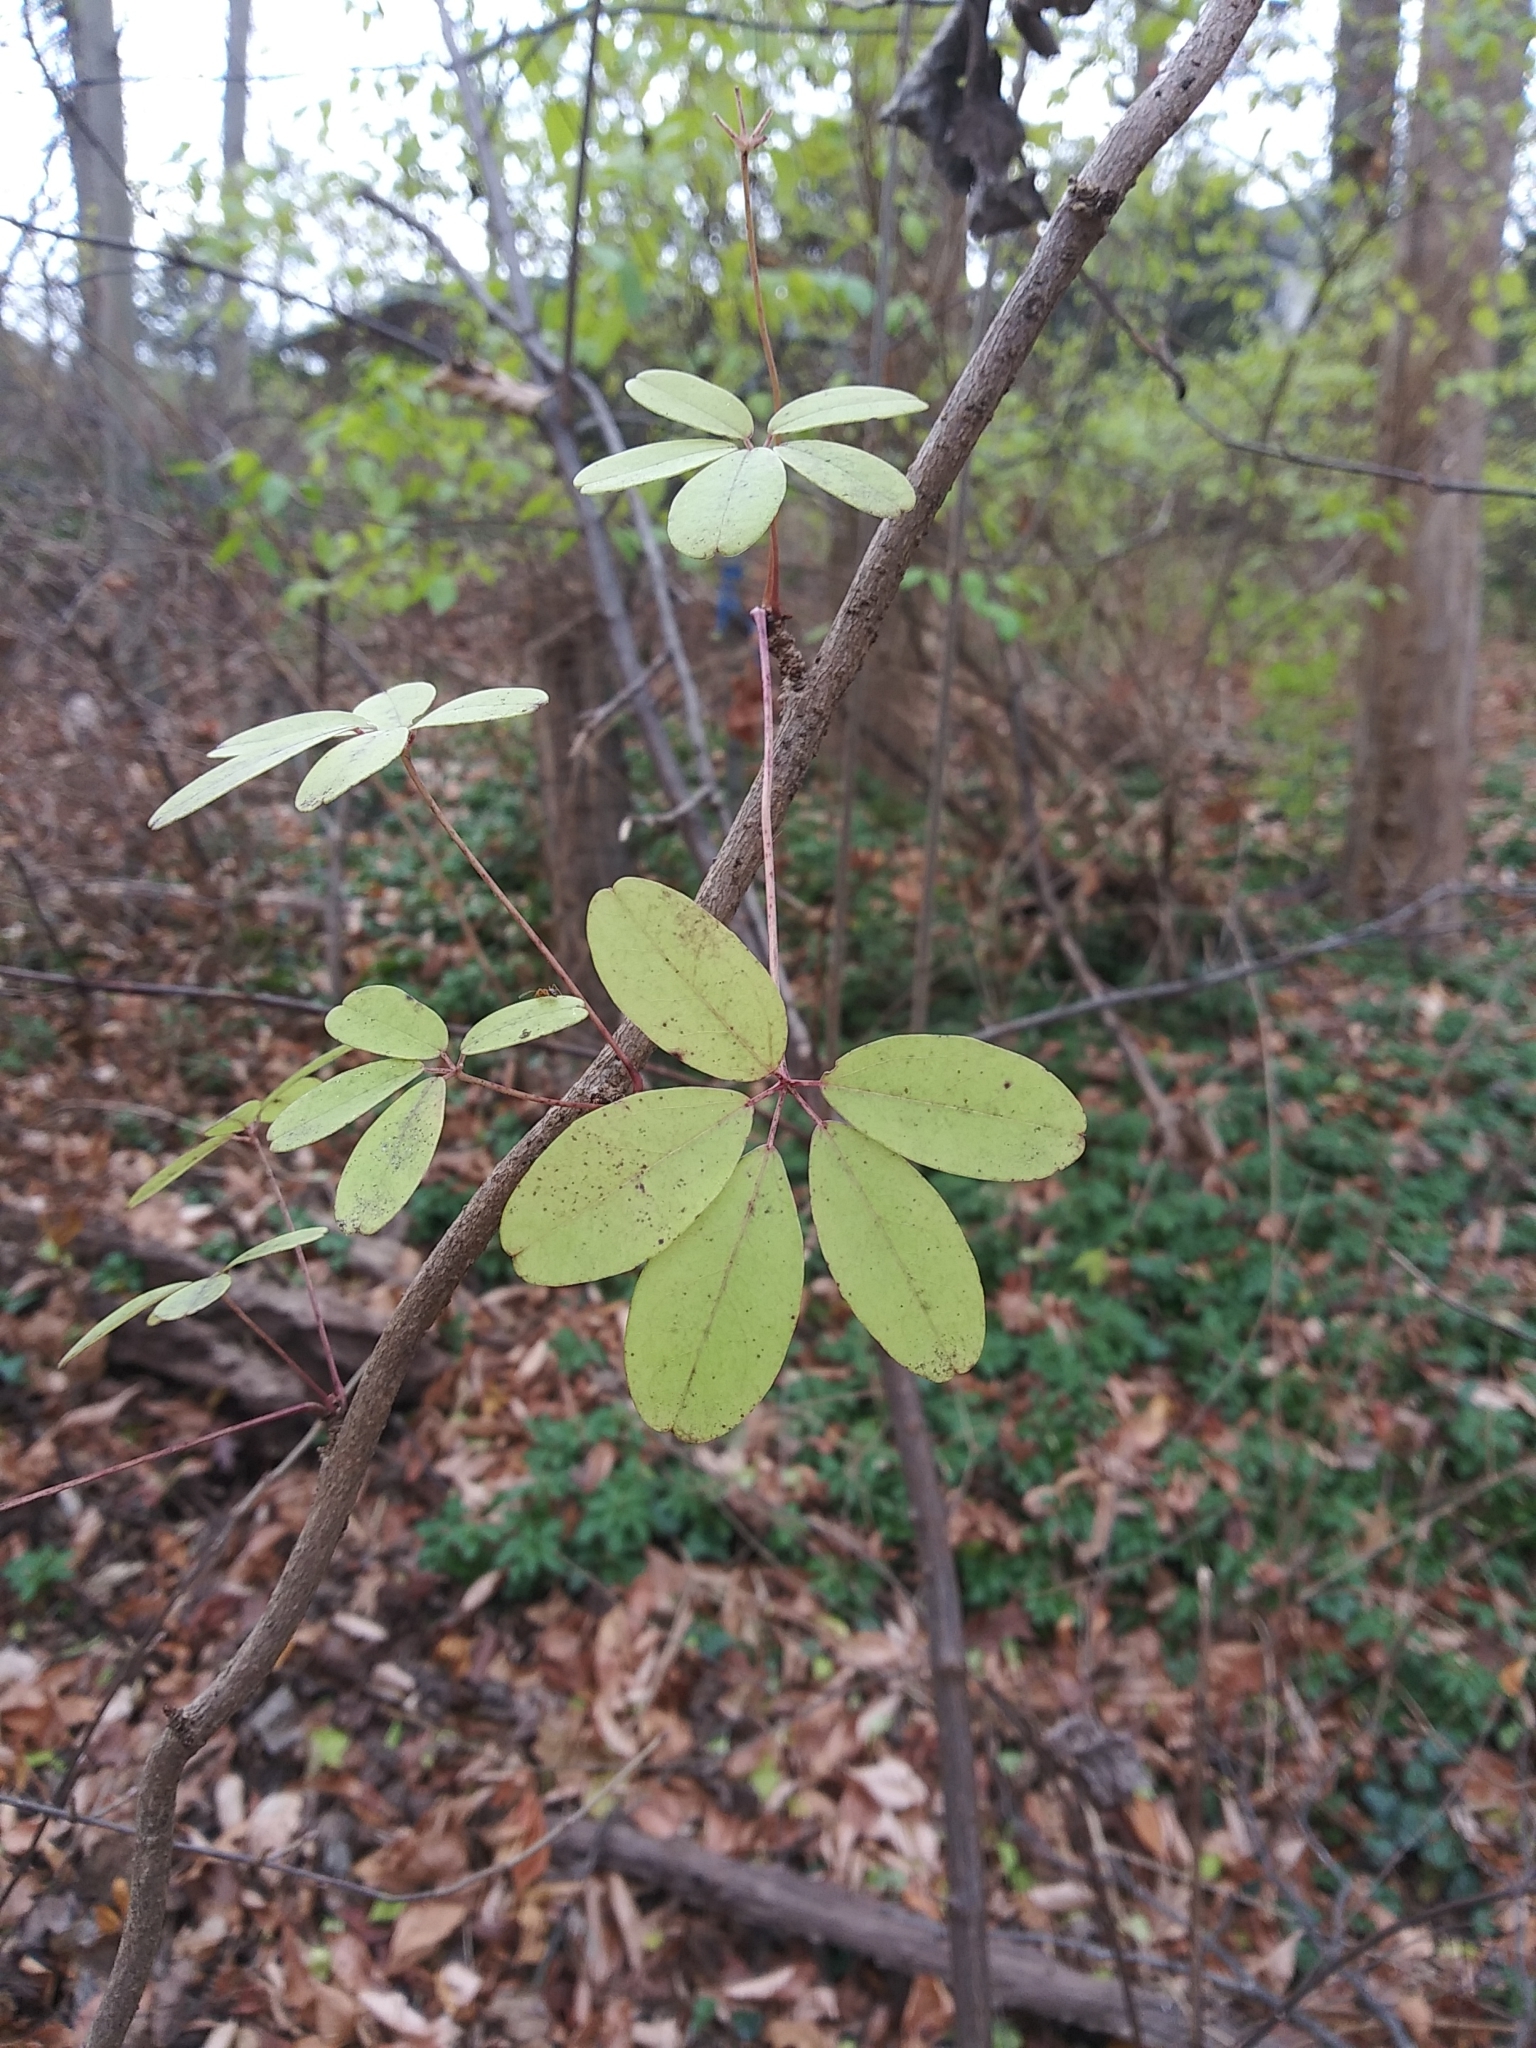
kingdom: Plantae
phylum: Tracheophyta
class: Magnoliopsida
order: Ranunculales
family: Lardizabalaceae
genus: Akebia
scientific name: Akebia quinata
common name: Five-leaf akebia
